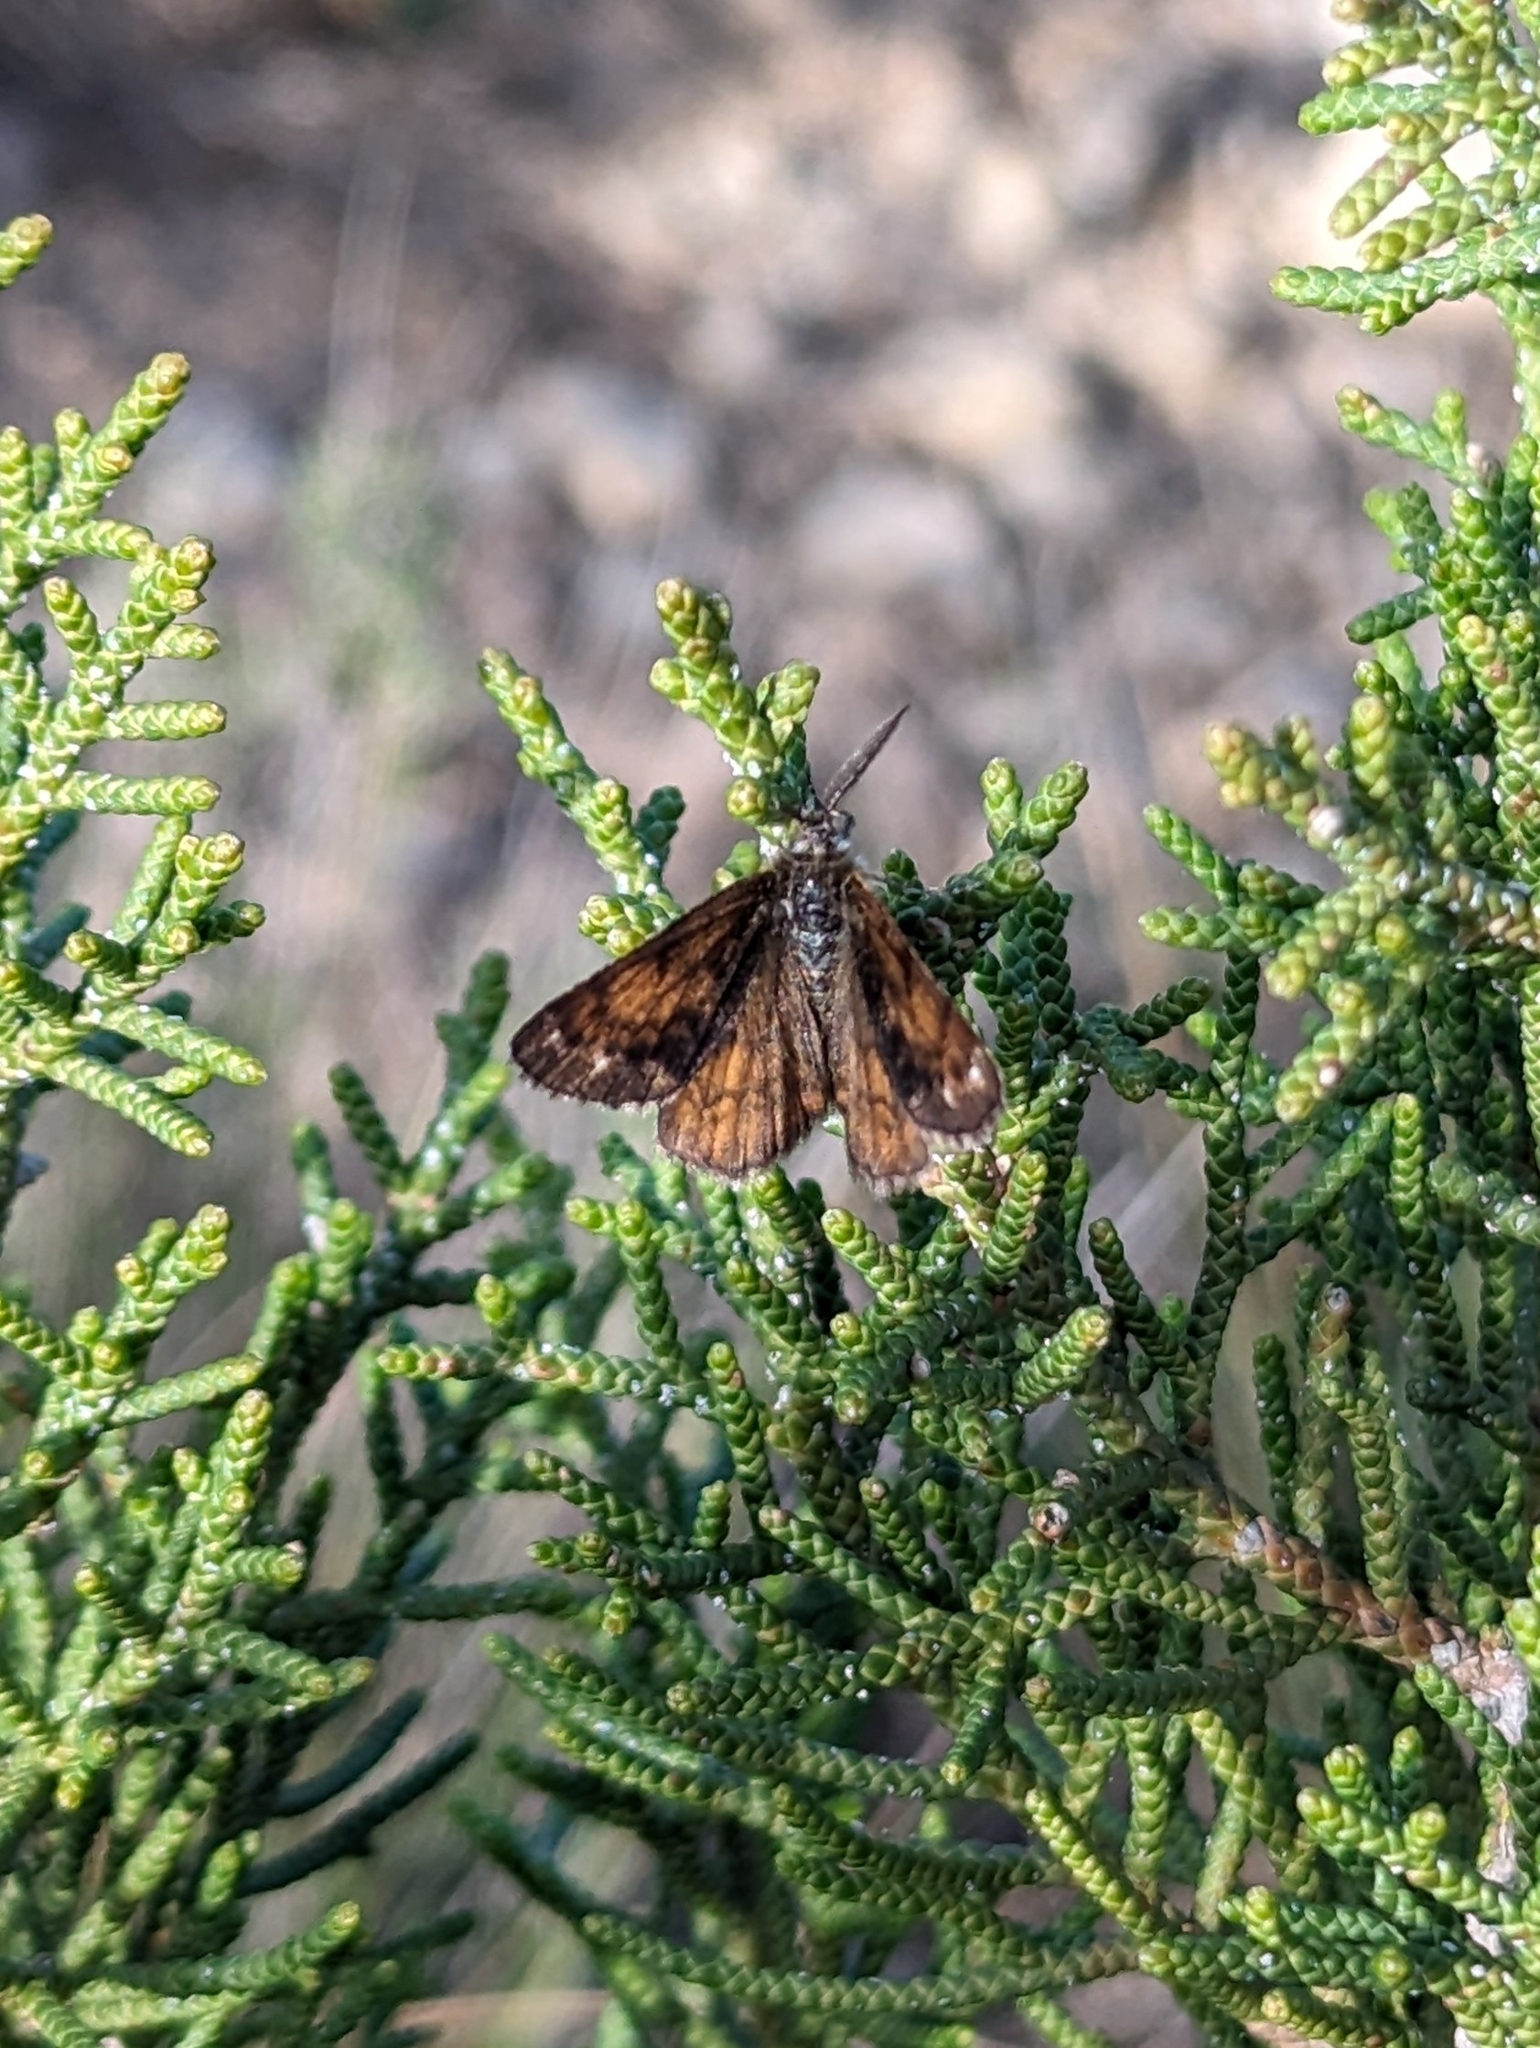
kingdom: Animalia
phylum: Arthropoda
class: Insecta
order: Lepidoptera
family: Geometridae
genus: Isturgia
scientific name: Isturgia famula
